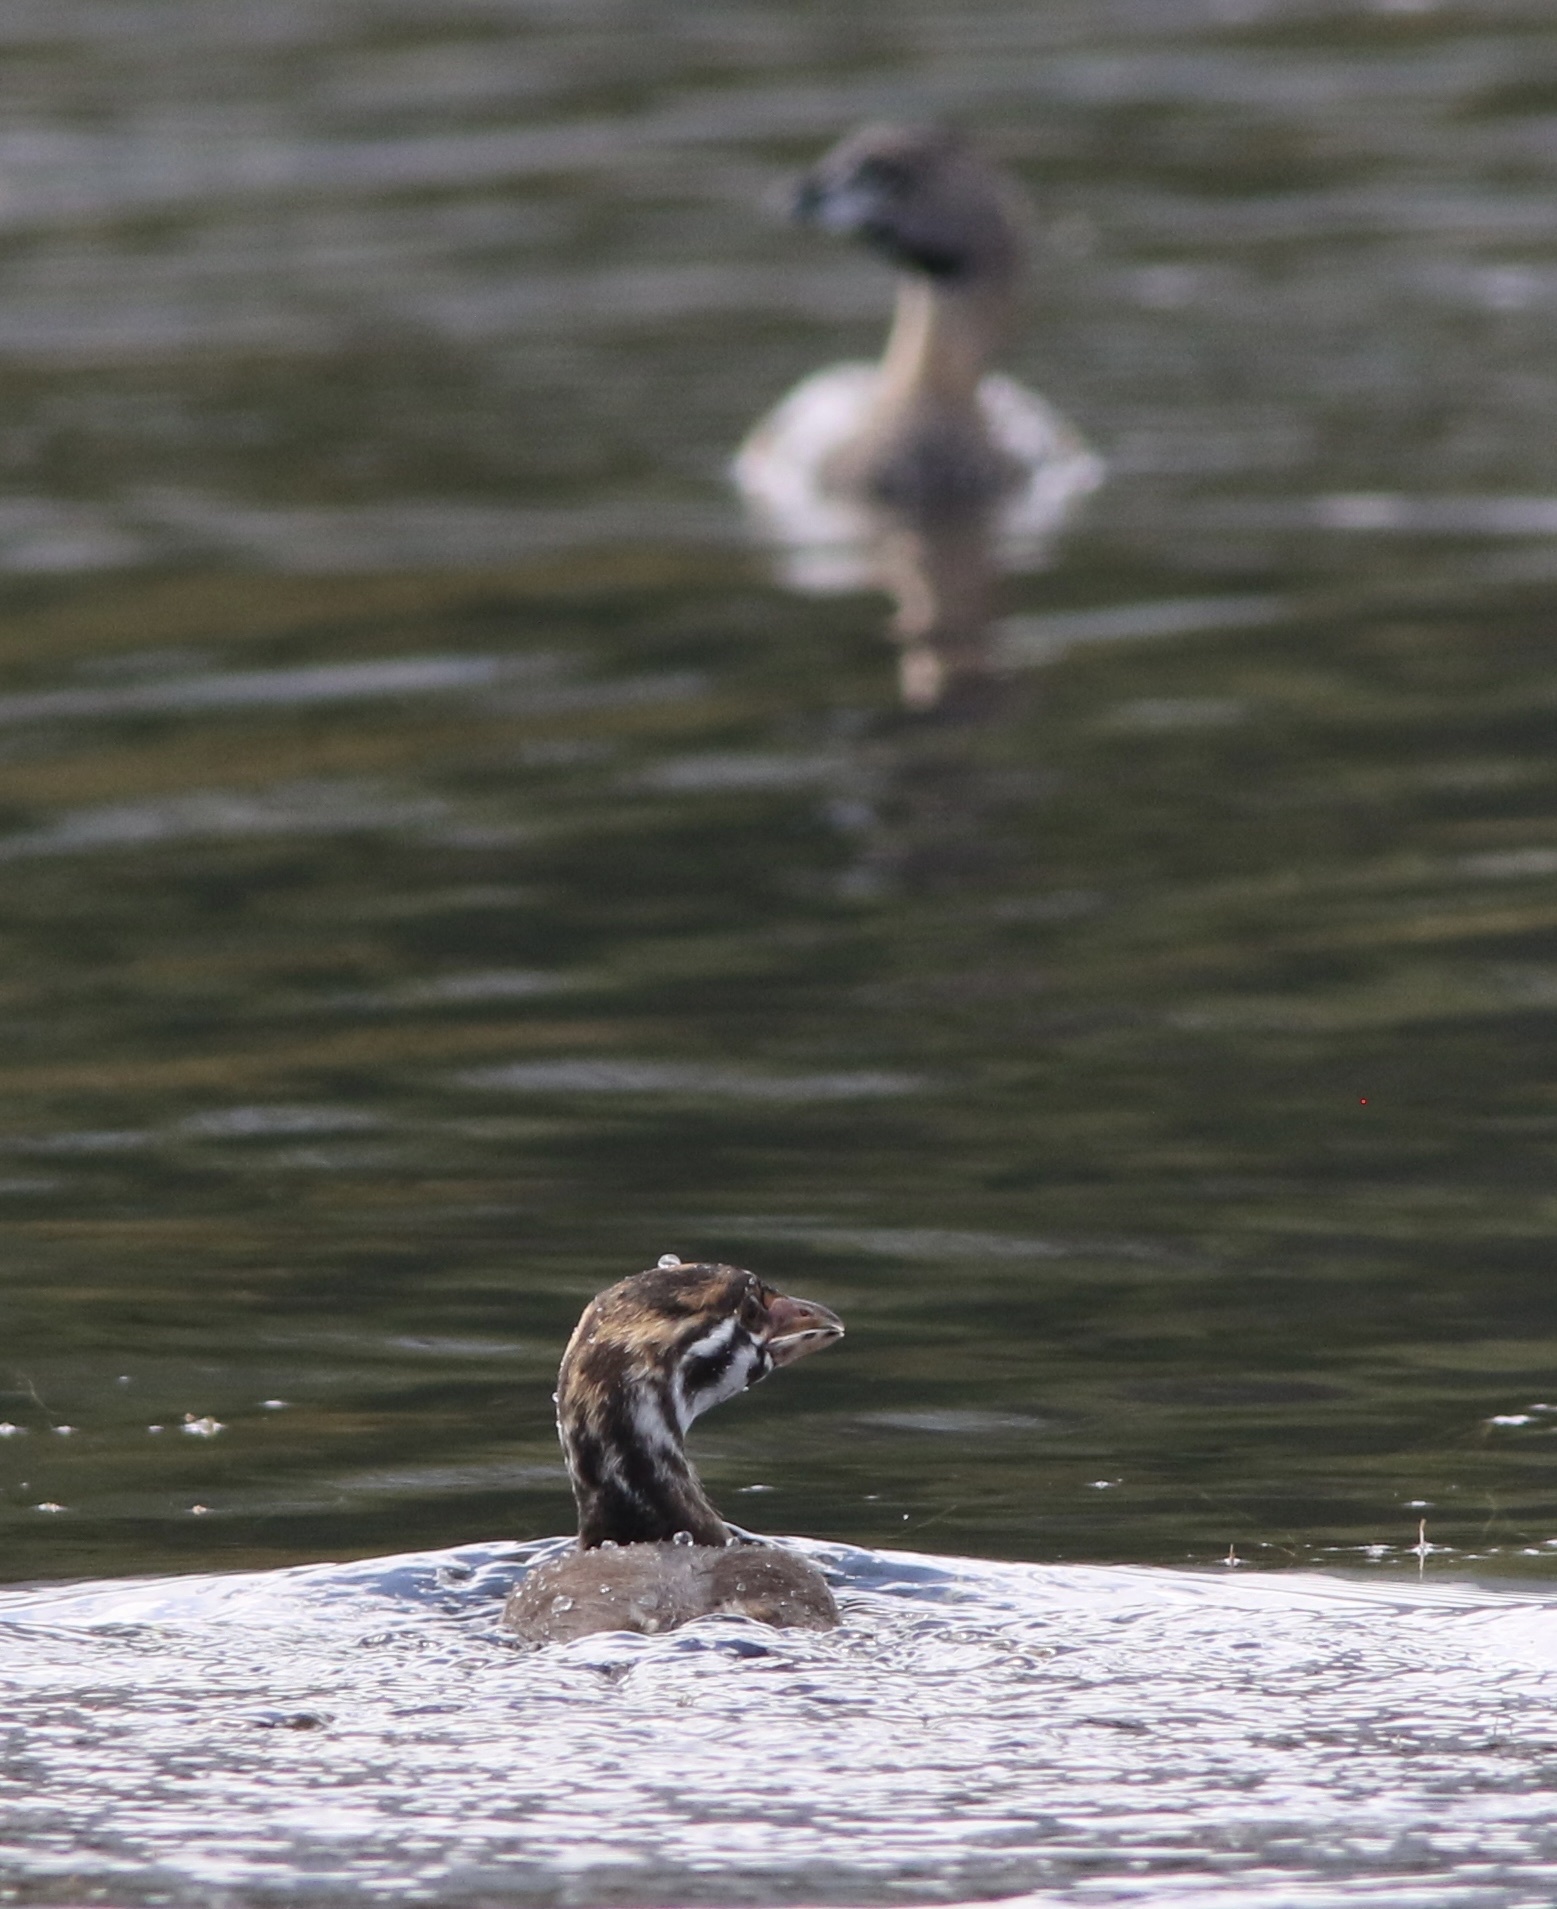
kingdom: Animalia
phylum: Chordata
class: Aves
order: Podicipediformes
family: Podicipedidae
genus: Podilymbus
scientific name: Podilymbus podiceps
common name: Pied-billed grebe
